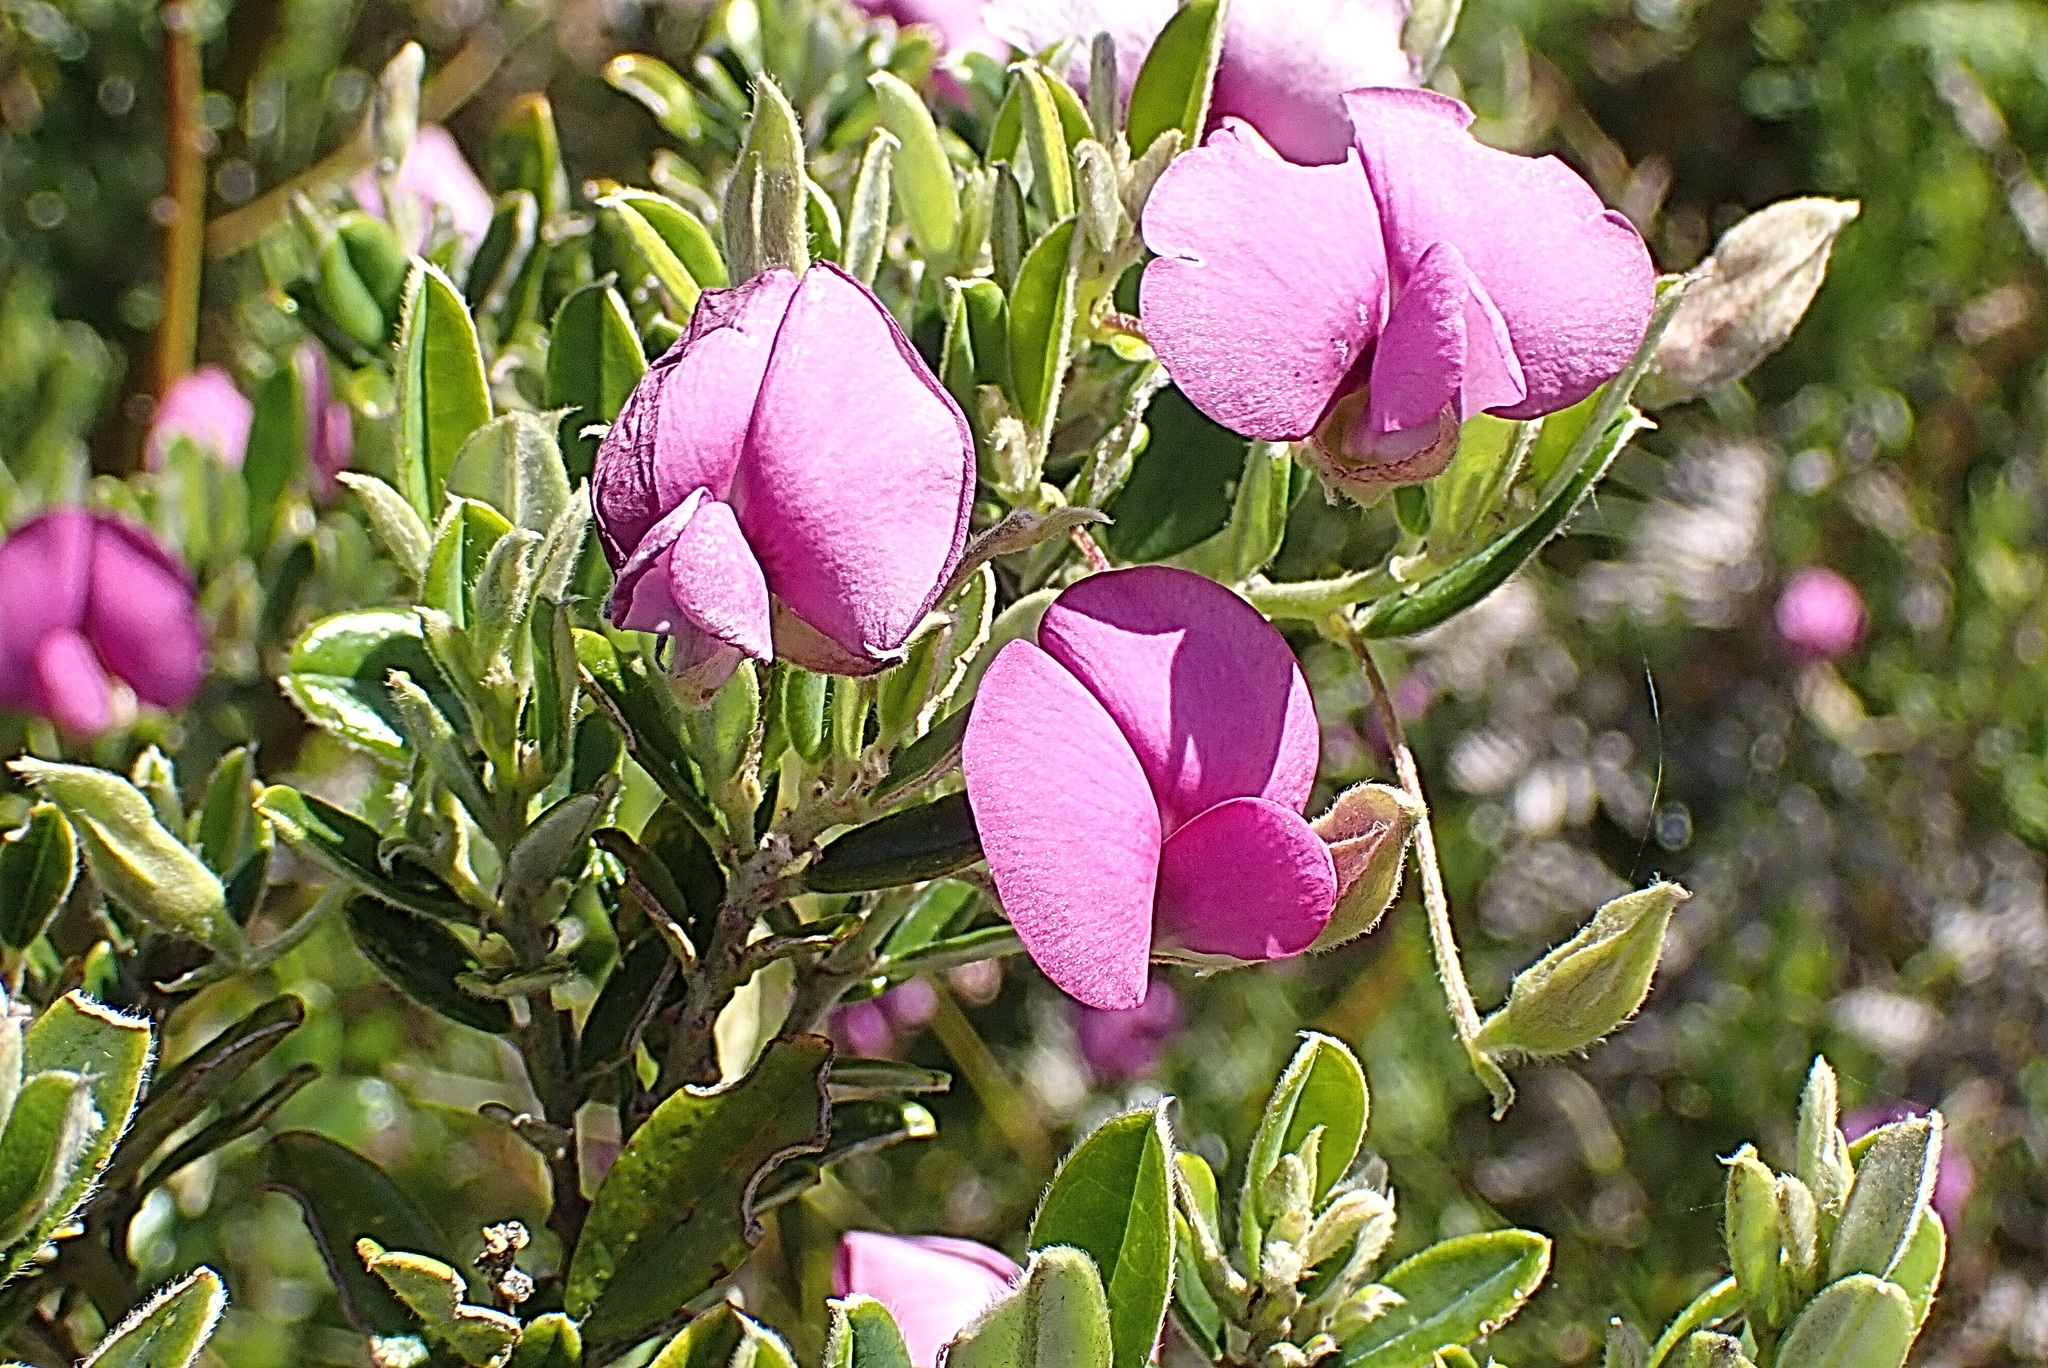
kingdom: Plantae
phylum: Tracheophyta
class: Magnoliopsida
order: Fabales
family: Fabaceae
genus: Podalyria
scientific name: Podalyria buxifolia
